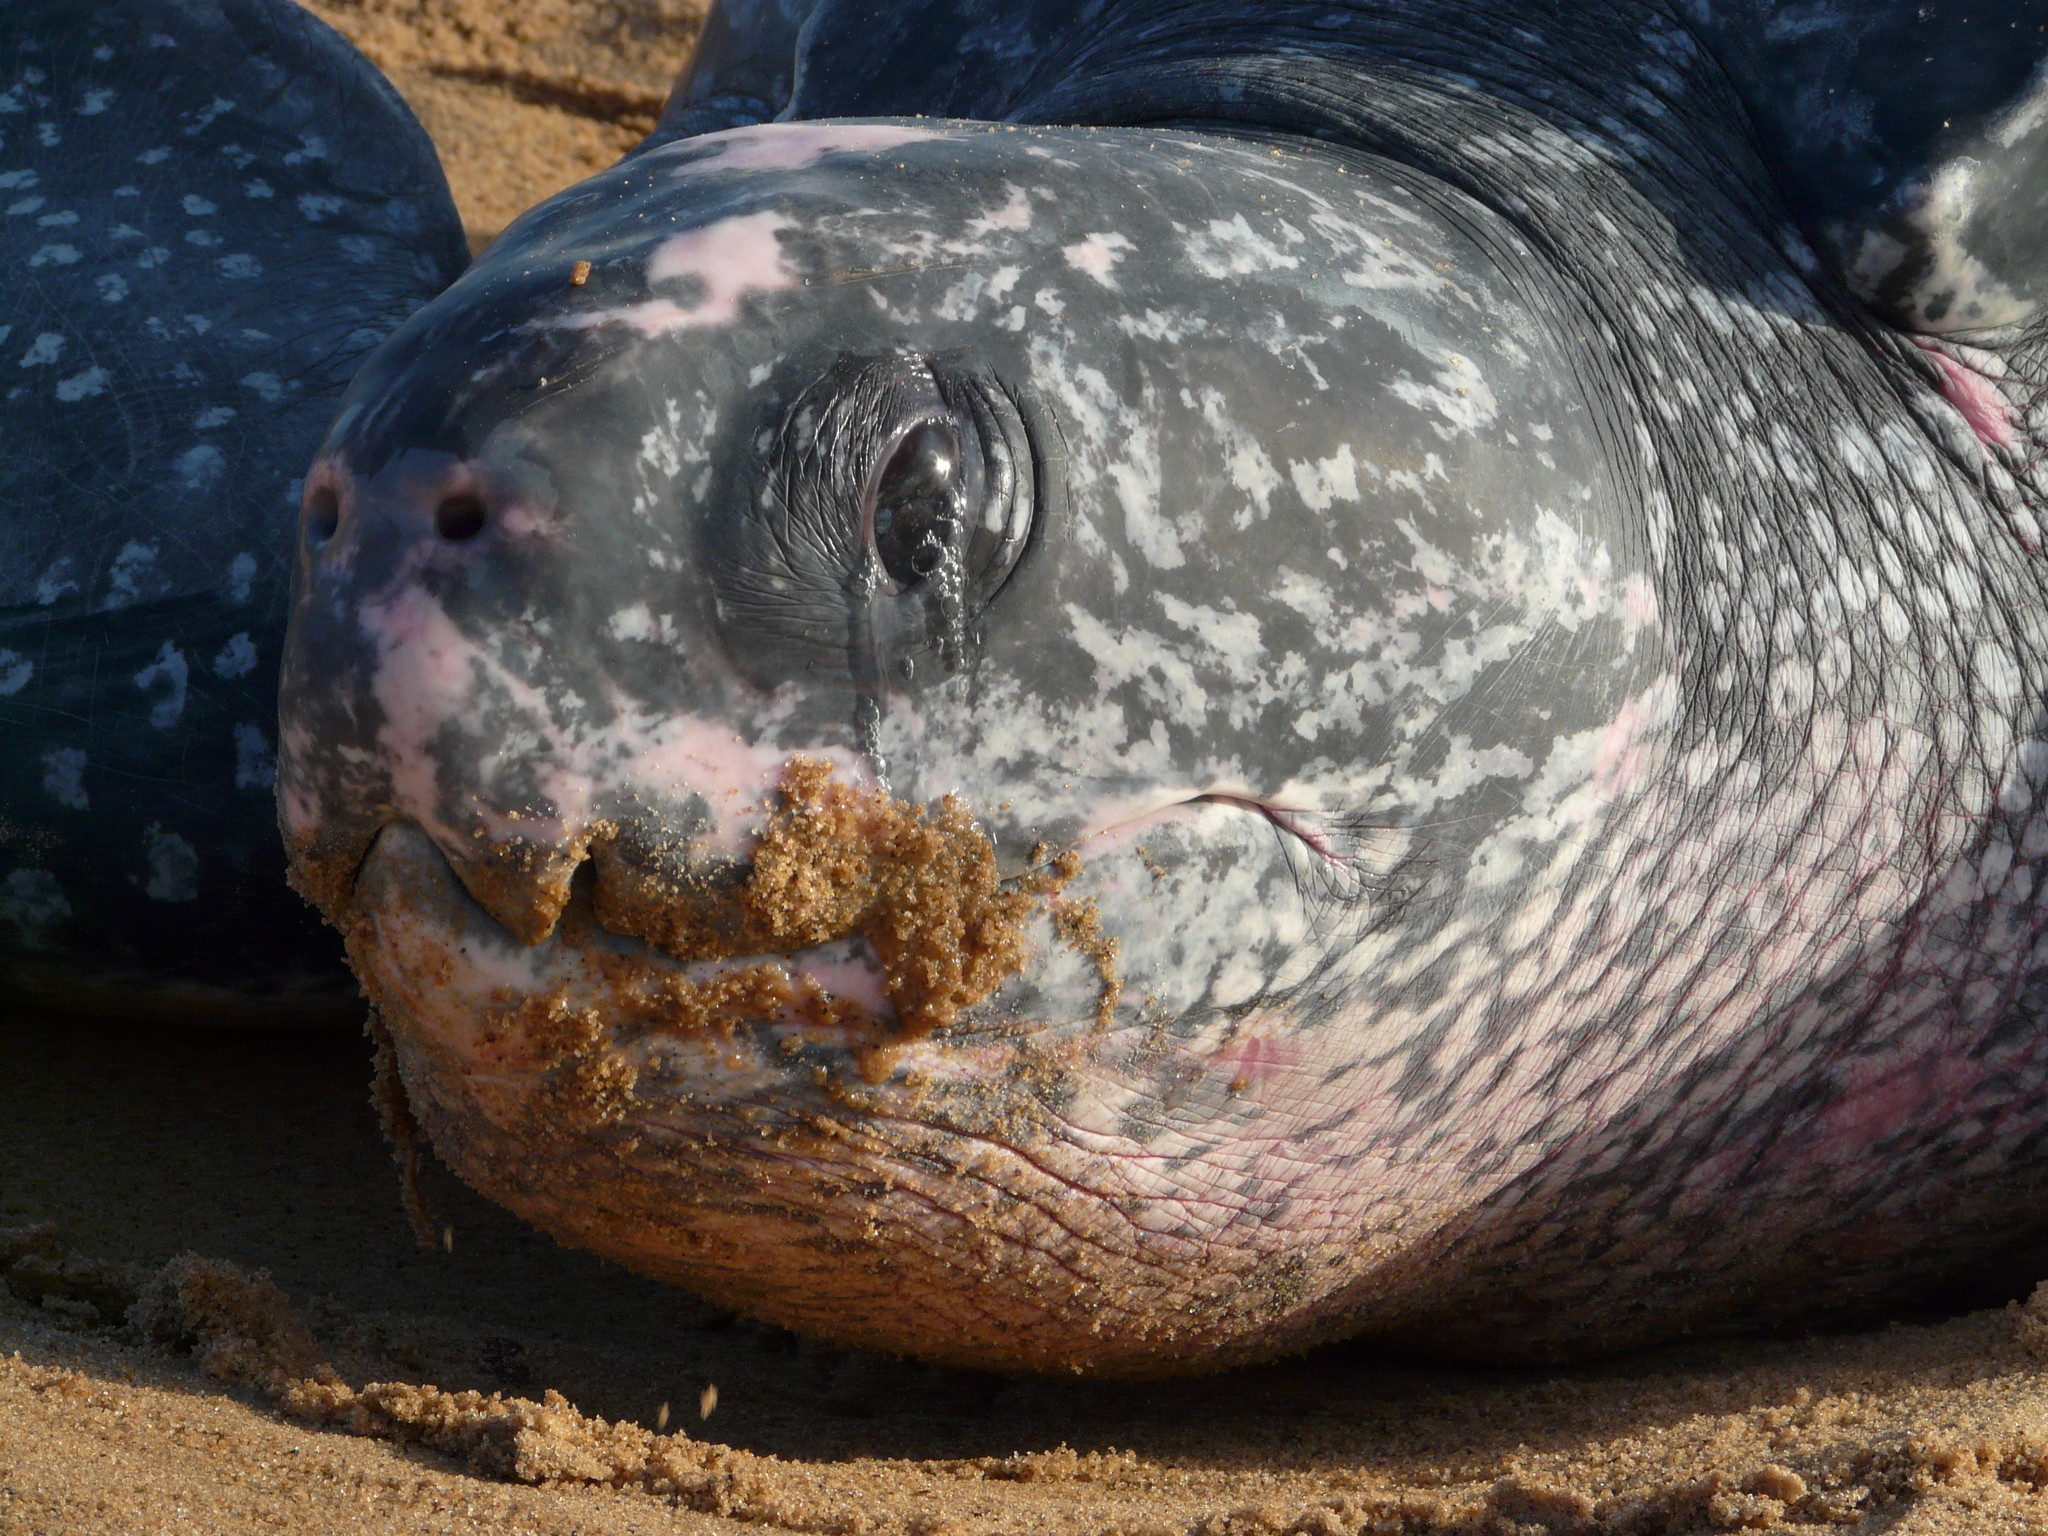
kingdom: Animalia
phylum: Chordata
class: Testudines
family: Dermochelyidae
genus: Dermochelys
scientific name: Dermochelys coriacea
